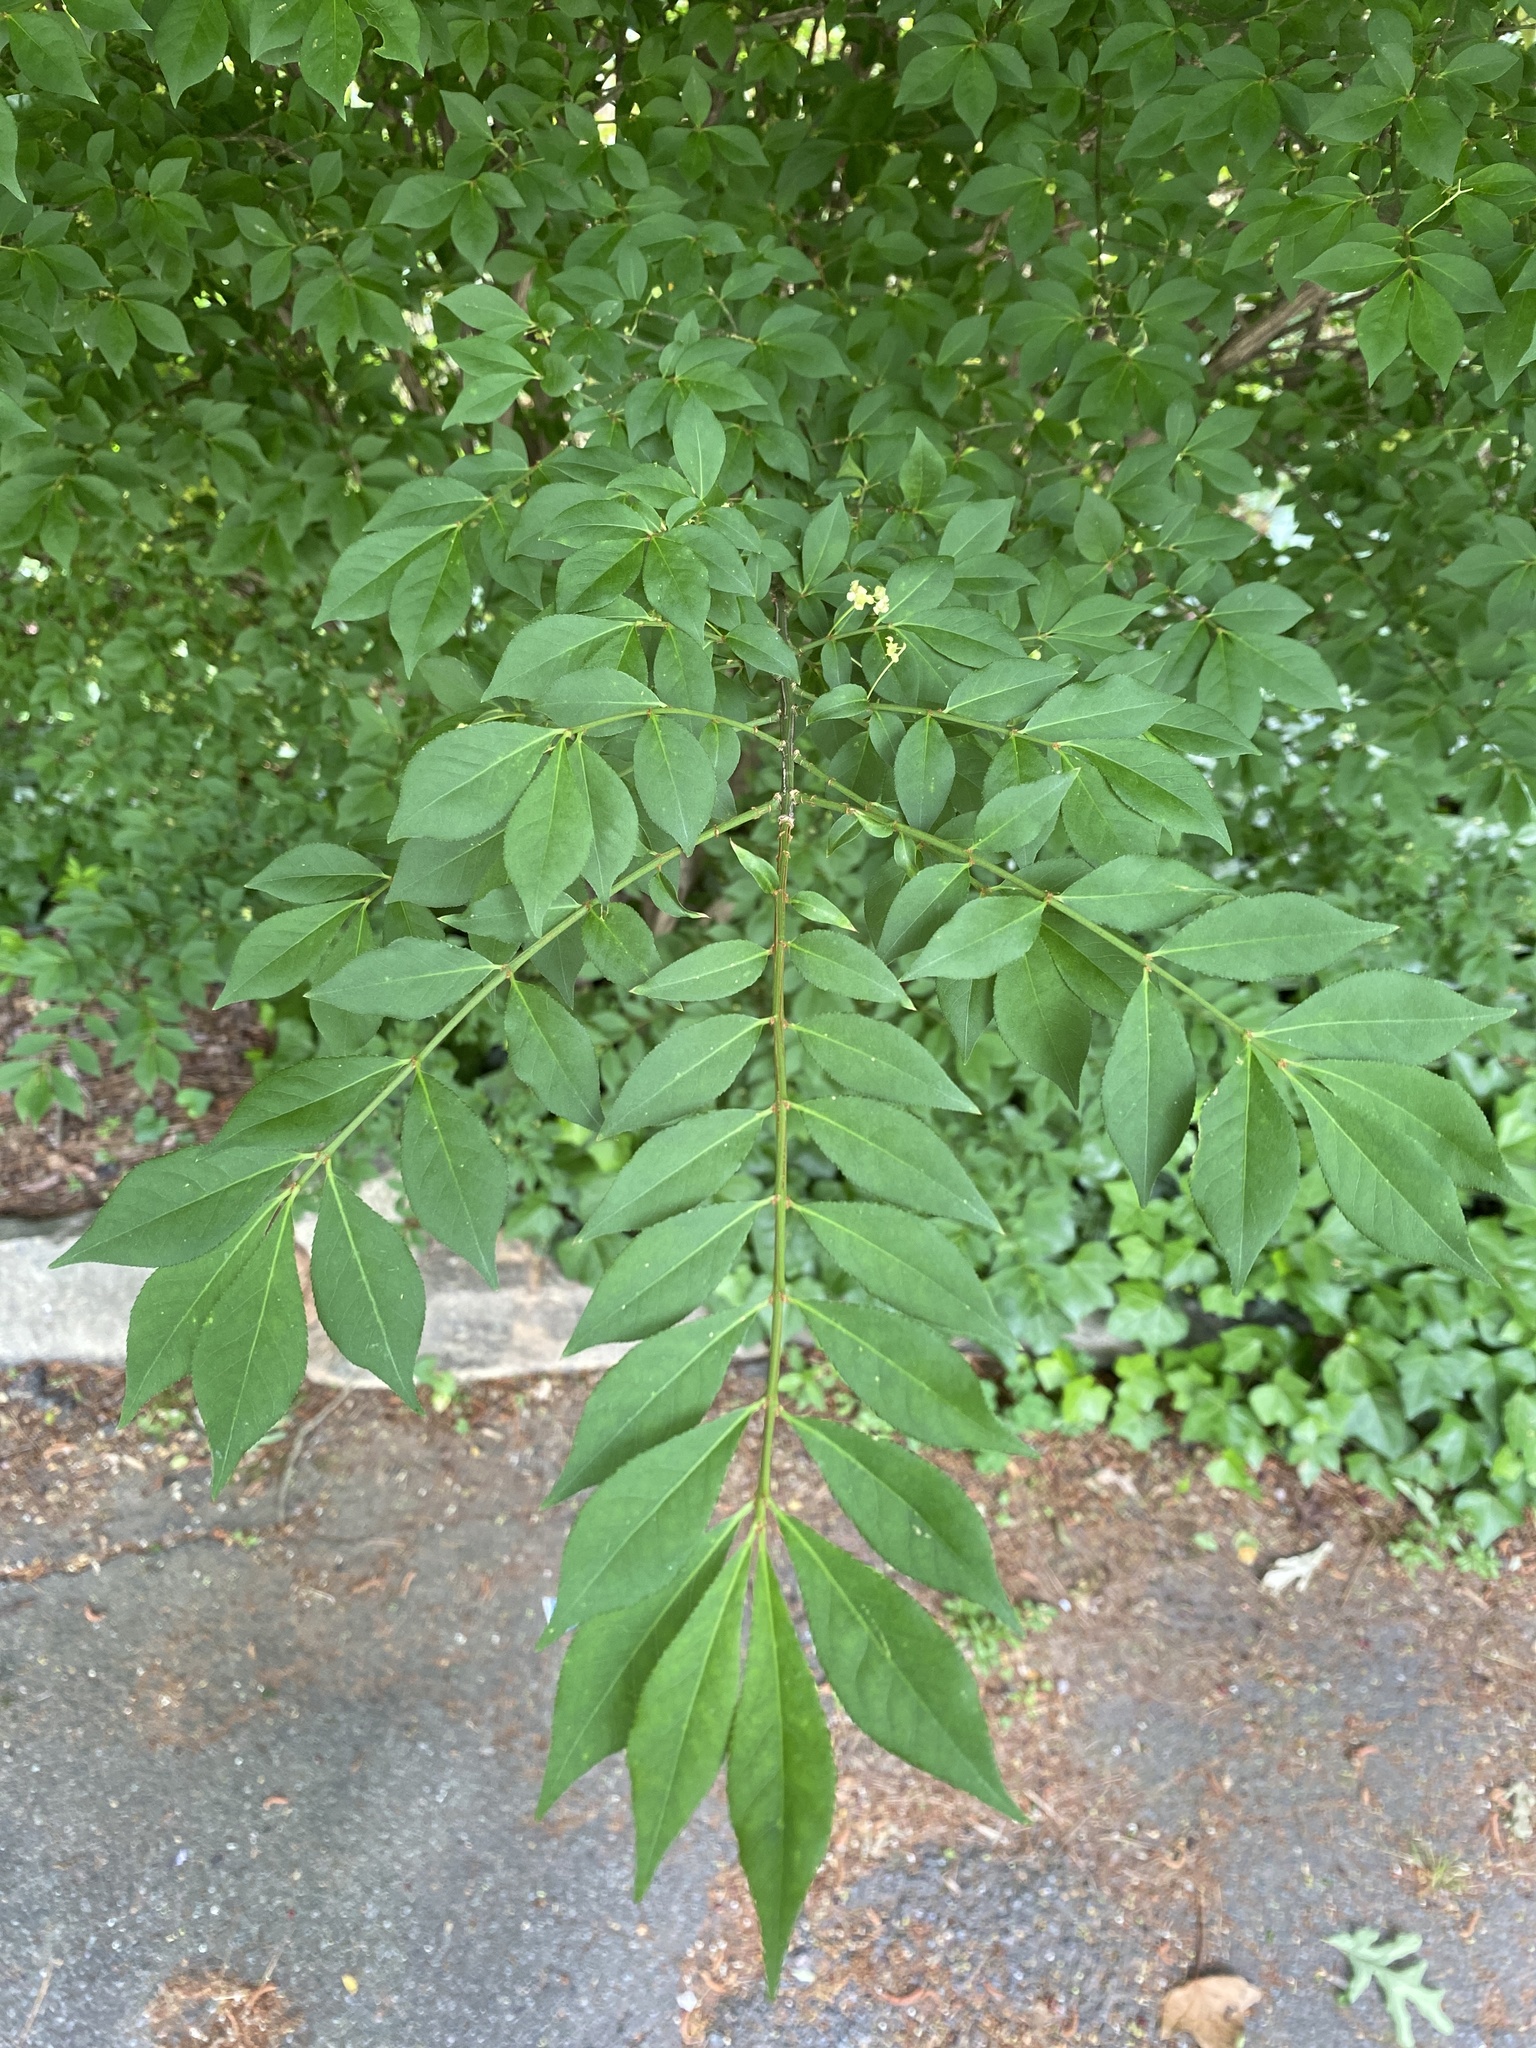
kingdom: Plantae
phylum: Tracheophyta
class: Magnoliopsida
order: Celastrales
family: Celastraceae
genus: Euonymus
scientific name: Euonymus alatus
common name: Winged euonymus
